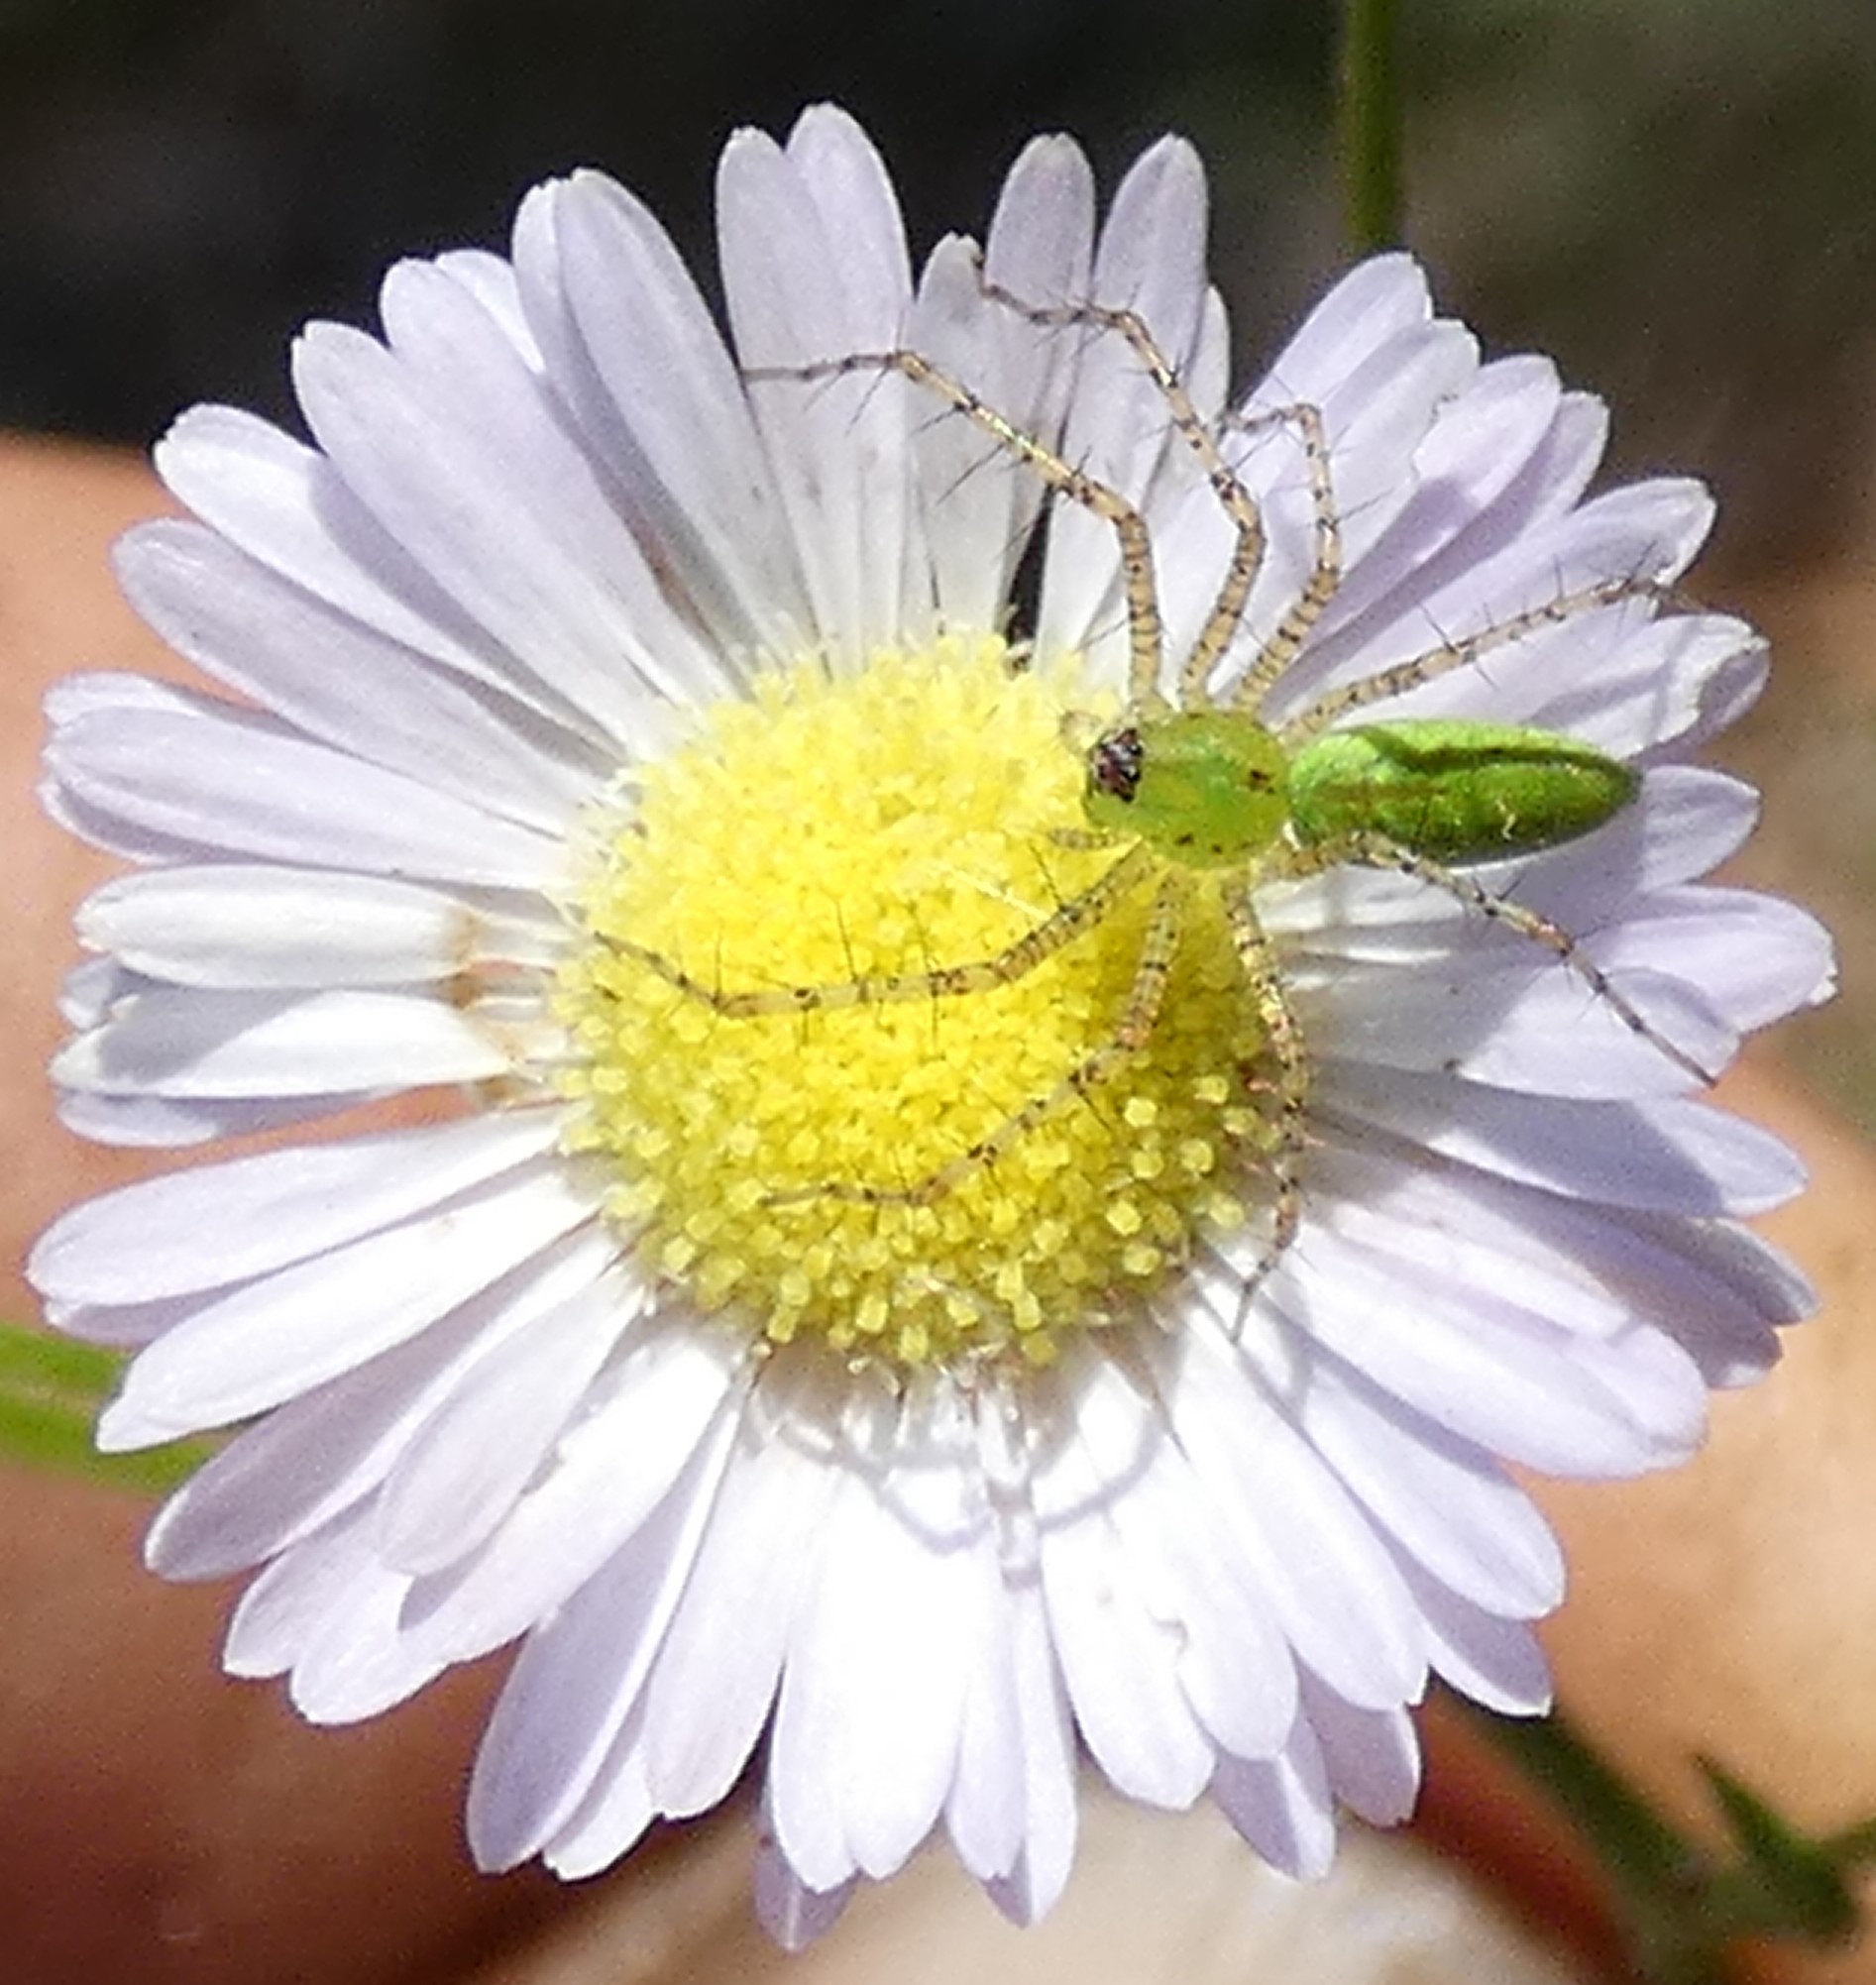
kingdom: Animalia
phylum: Arthropoda
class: Arachnida
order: Araneae
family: Oxyopidae
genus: Peucetia
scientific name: Peucetia viridans
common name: Lynx spiders
